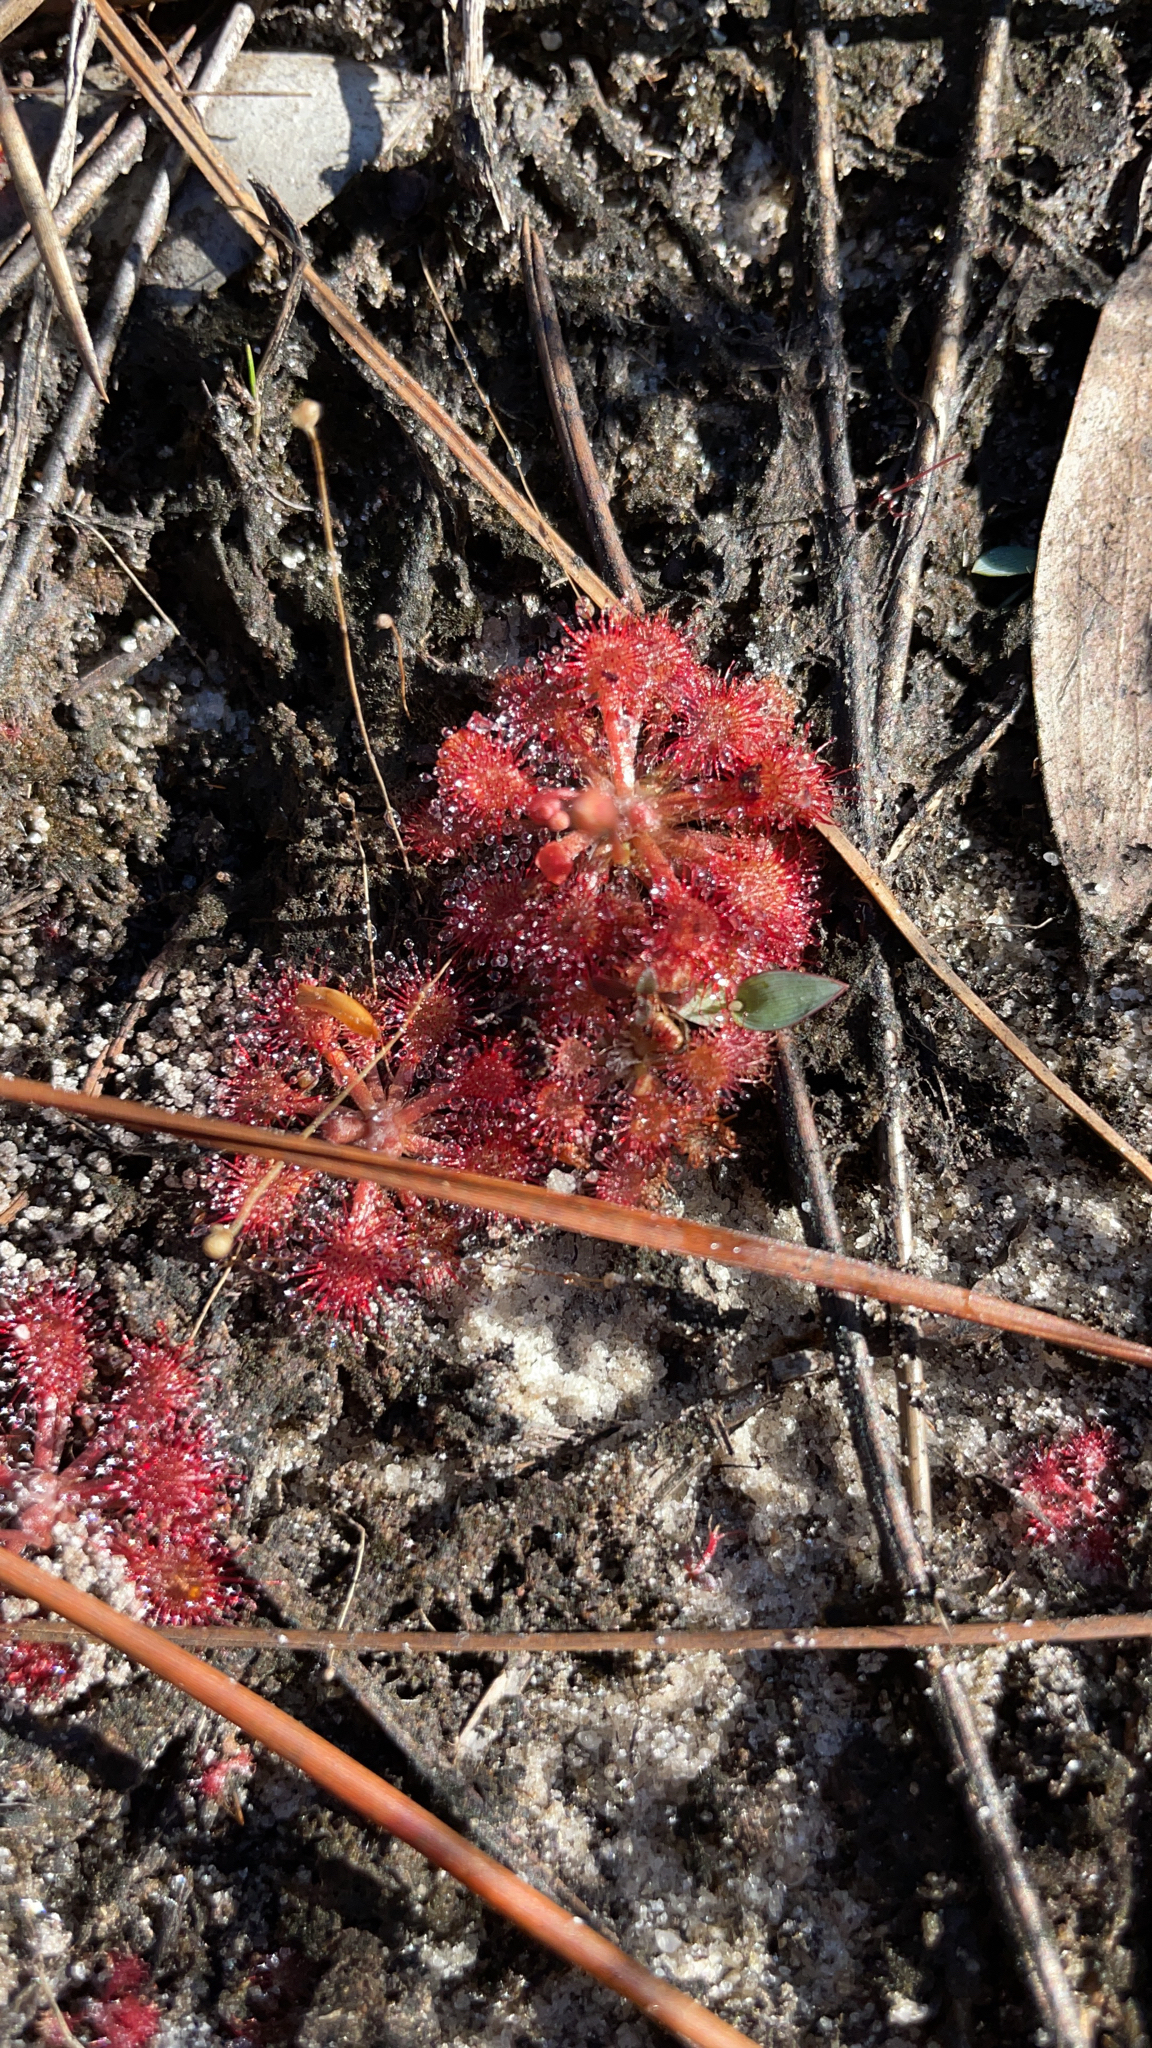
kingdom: Plantae
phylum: Tracheophyta
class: Magnoliopsida
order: Caryophyllales
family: Droseraceae
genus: Drosera
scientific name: Drosera capillaris
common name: Pink sundew
